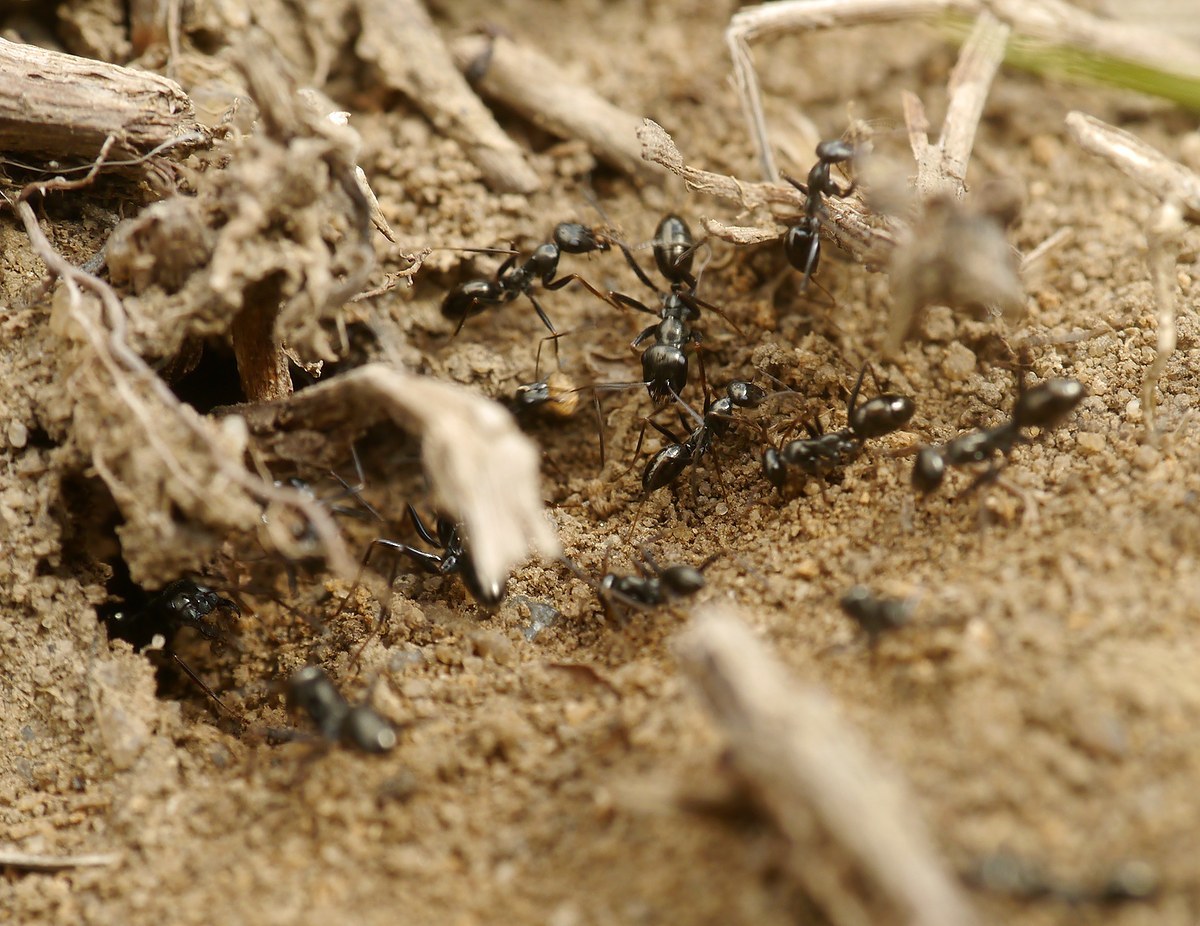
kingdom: Animalia
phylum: Arthropoda
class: Insecta
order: Hymenoptera
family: Formicidae
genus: Cataglyphis
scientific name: Cataglyphis aenescens
